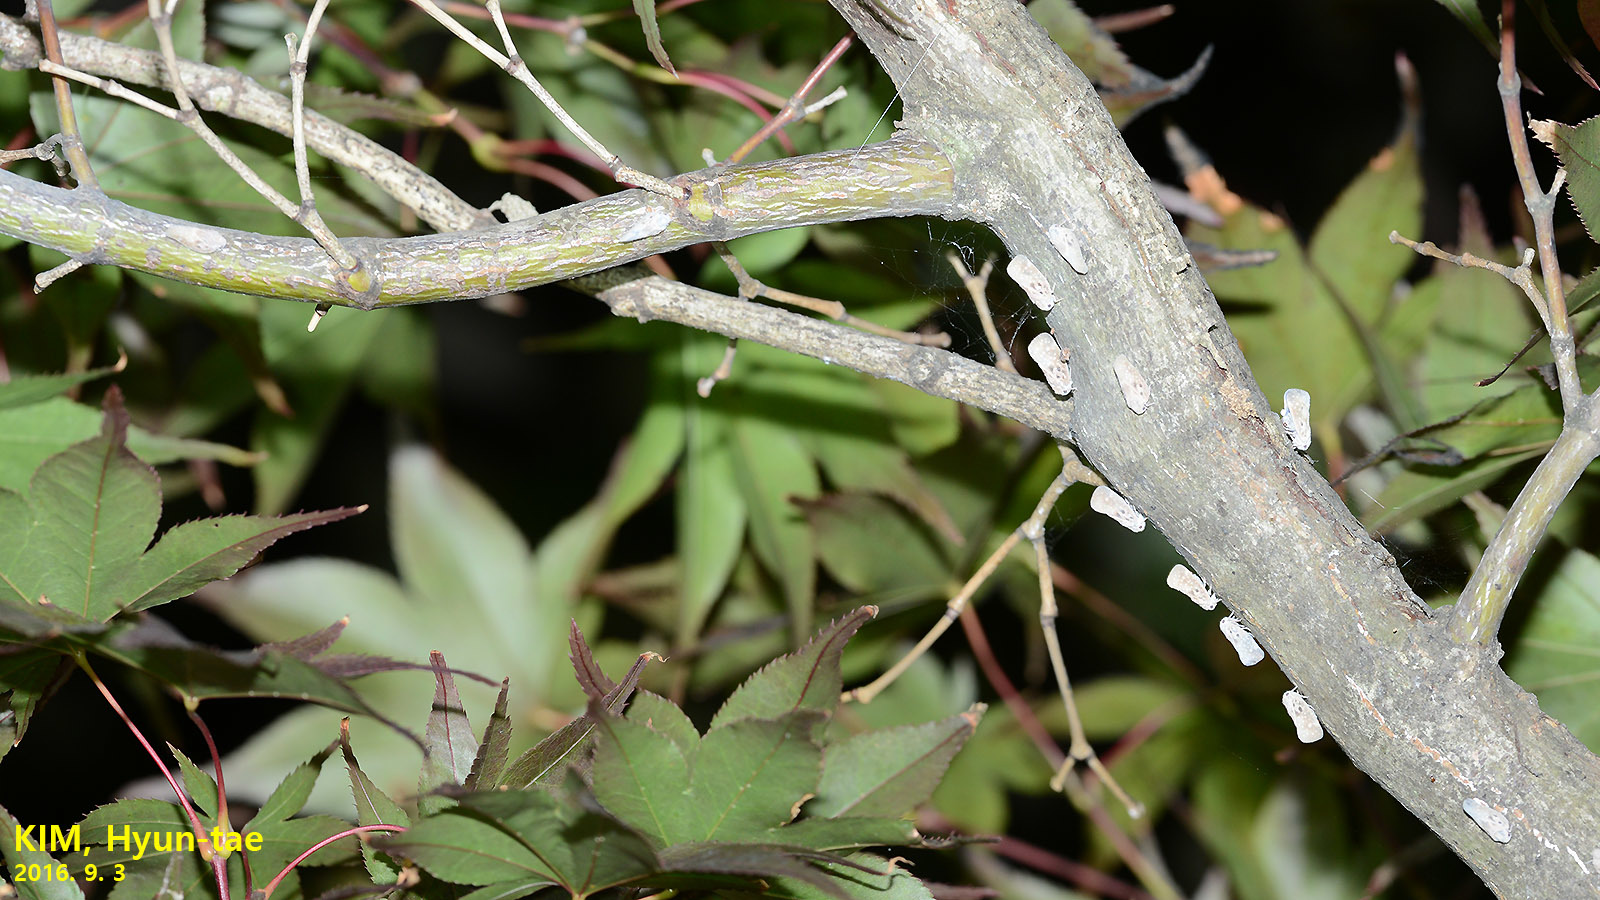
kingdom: Animalia
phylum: Arthropoda
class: Insecta
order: Hemiptera
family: Flatidae
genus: Metcalfa
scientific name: Metcalfa pruinosa
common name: Citrus flatid planthopper
